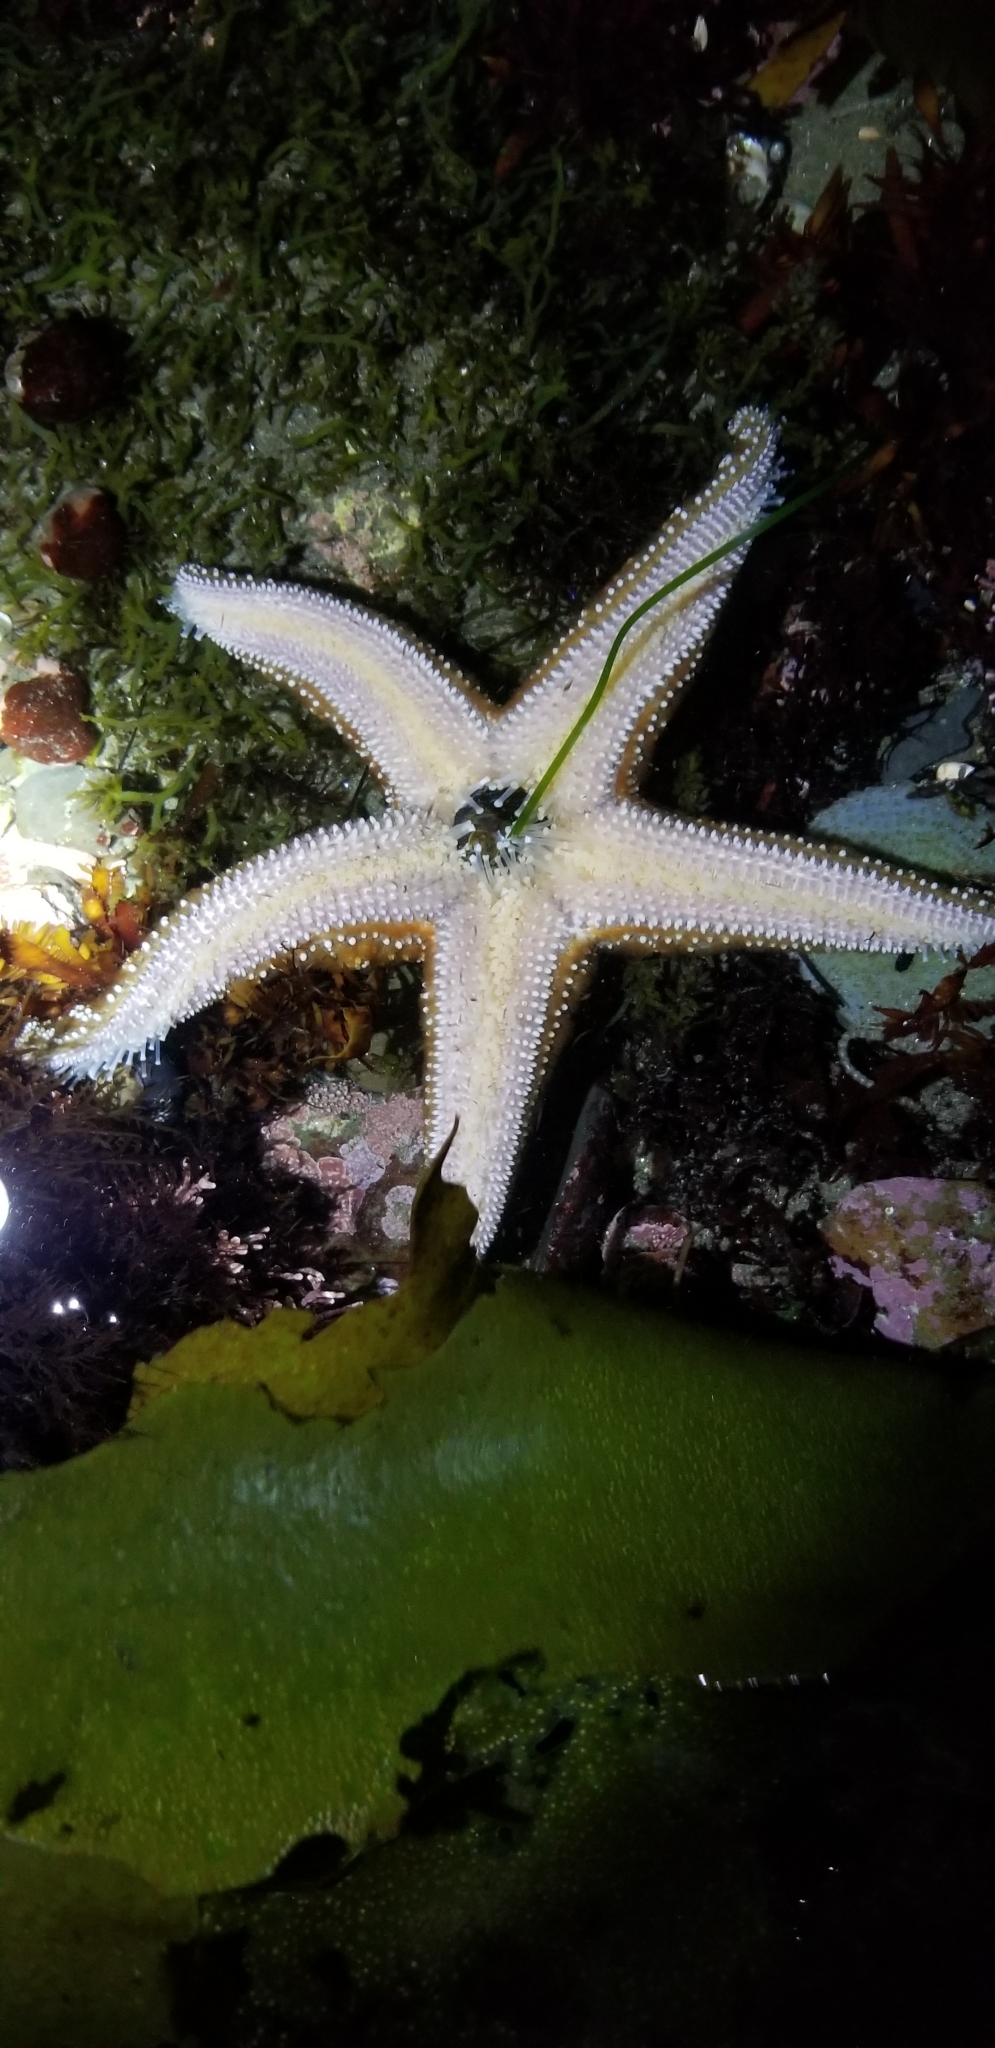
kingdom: Animalia
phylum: Echinodermata
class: Asteroidea
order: Forcipulatida
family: Asteriidae
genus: Pisaster
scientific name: Pisaster ochraceus
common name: Ochre stars
